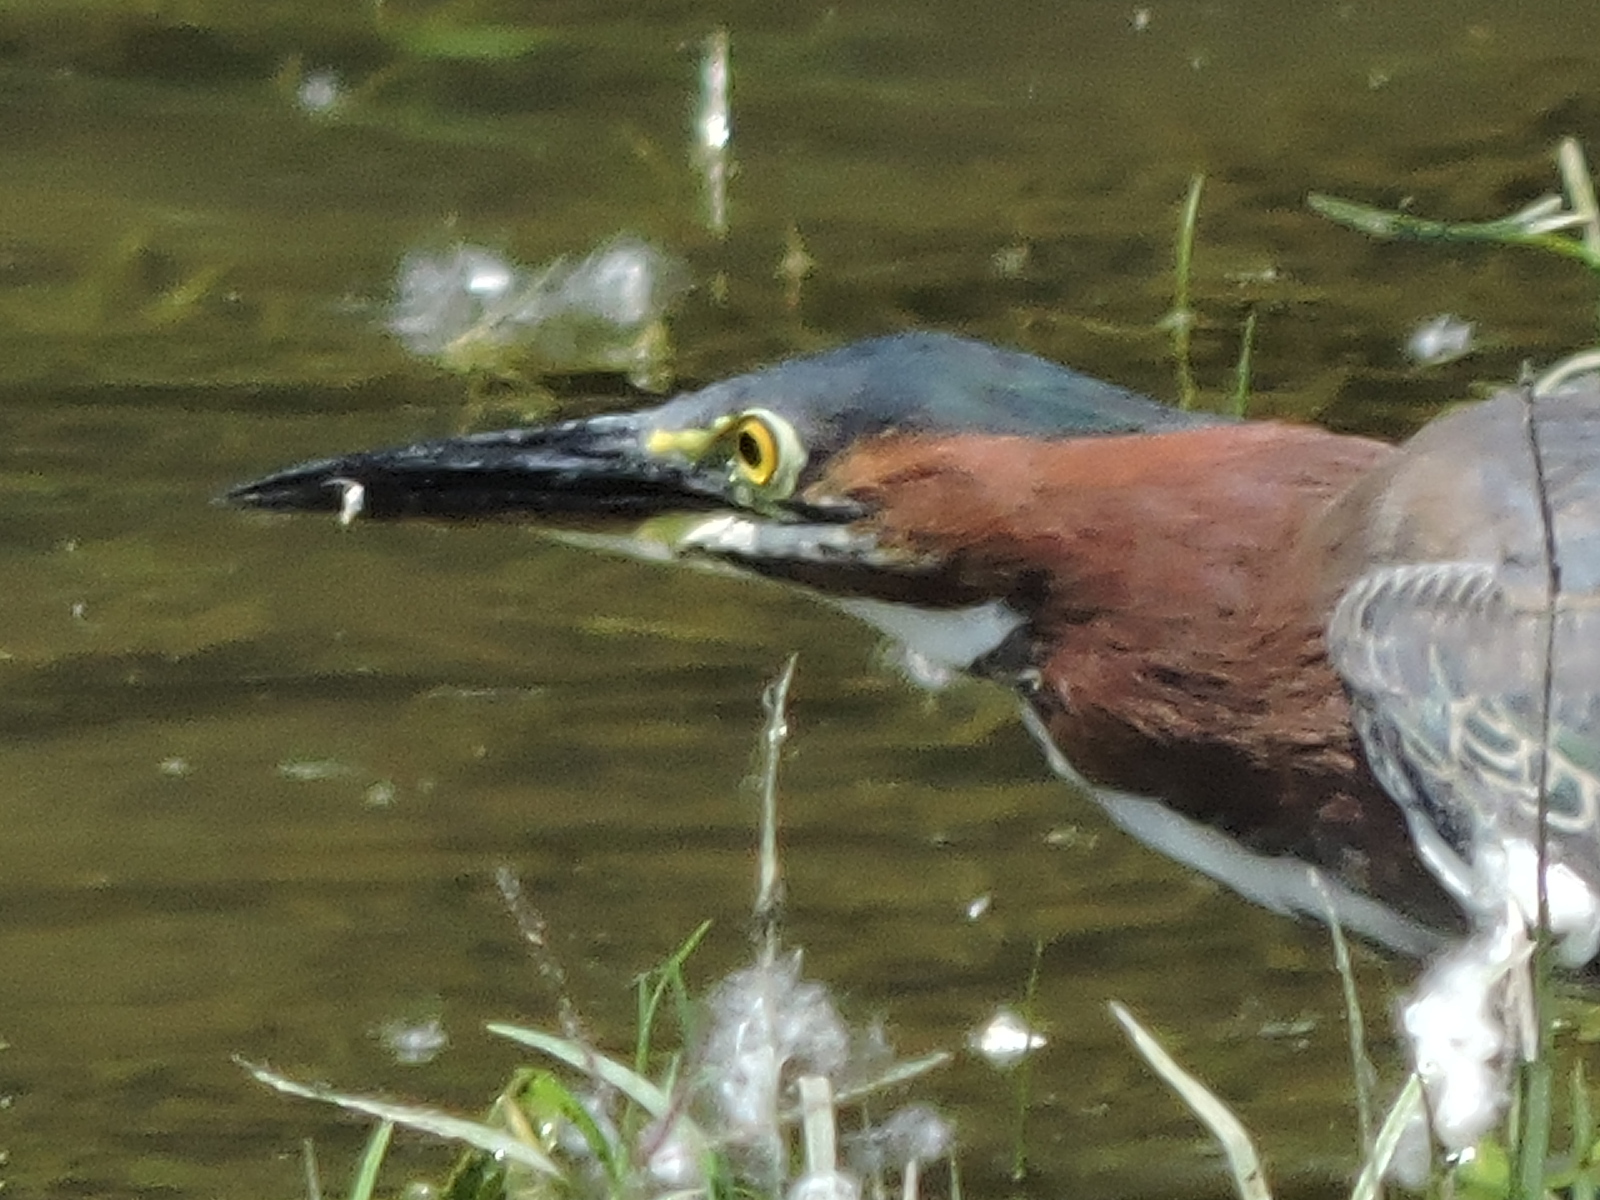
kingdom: Animalia
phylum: Chordata
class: Aves
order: Pelecaniformes
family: Ardeidae
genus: Butorides
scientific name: Butorides virescens
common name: Green heron
